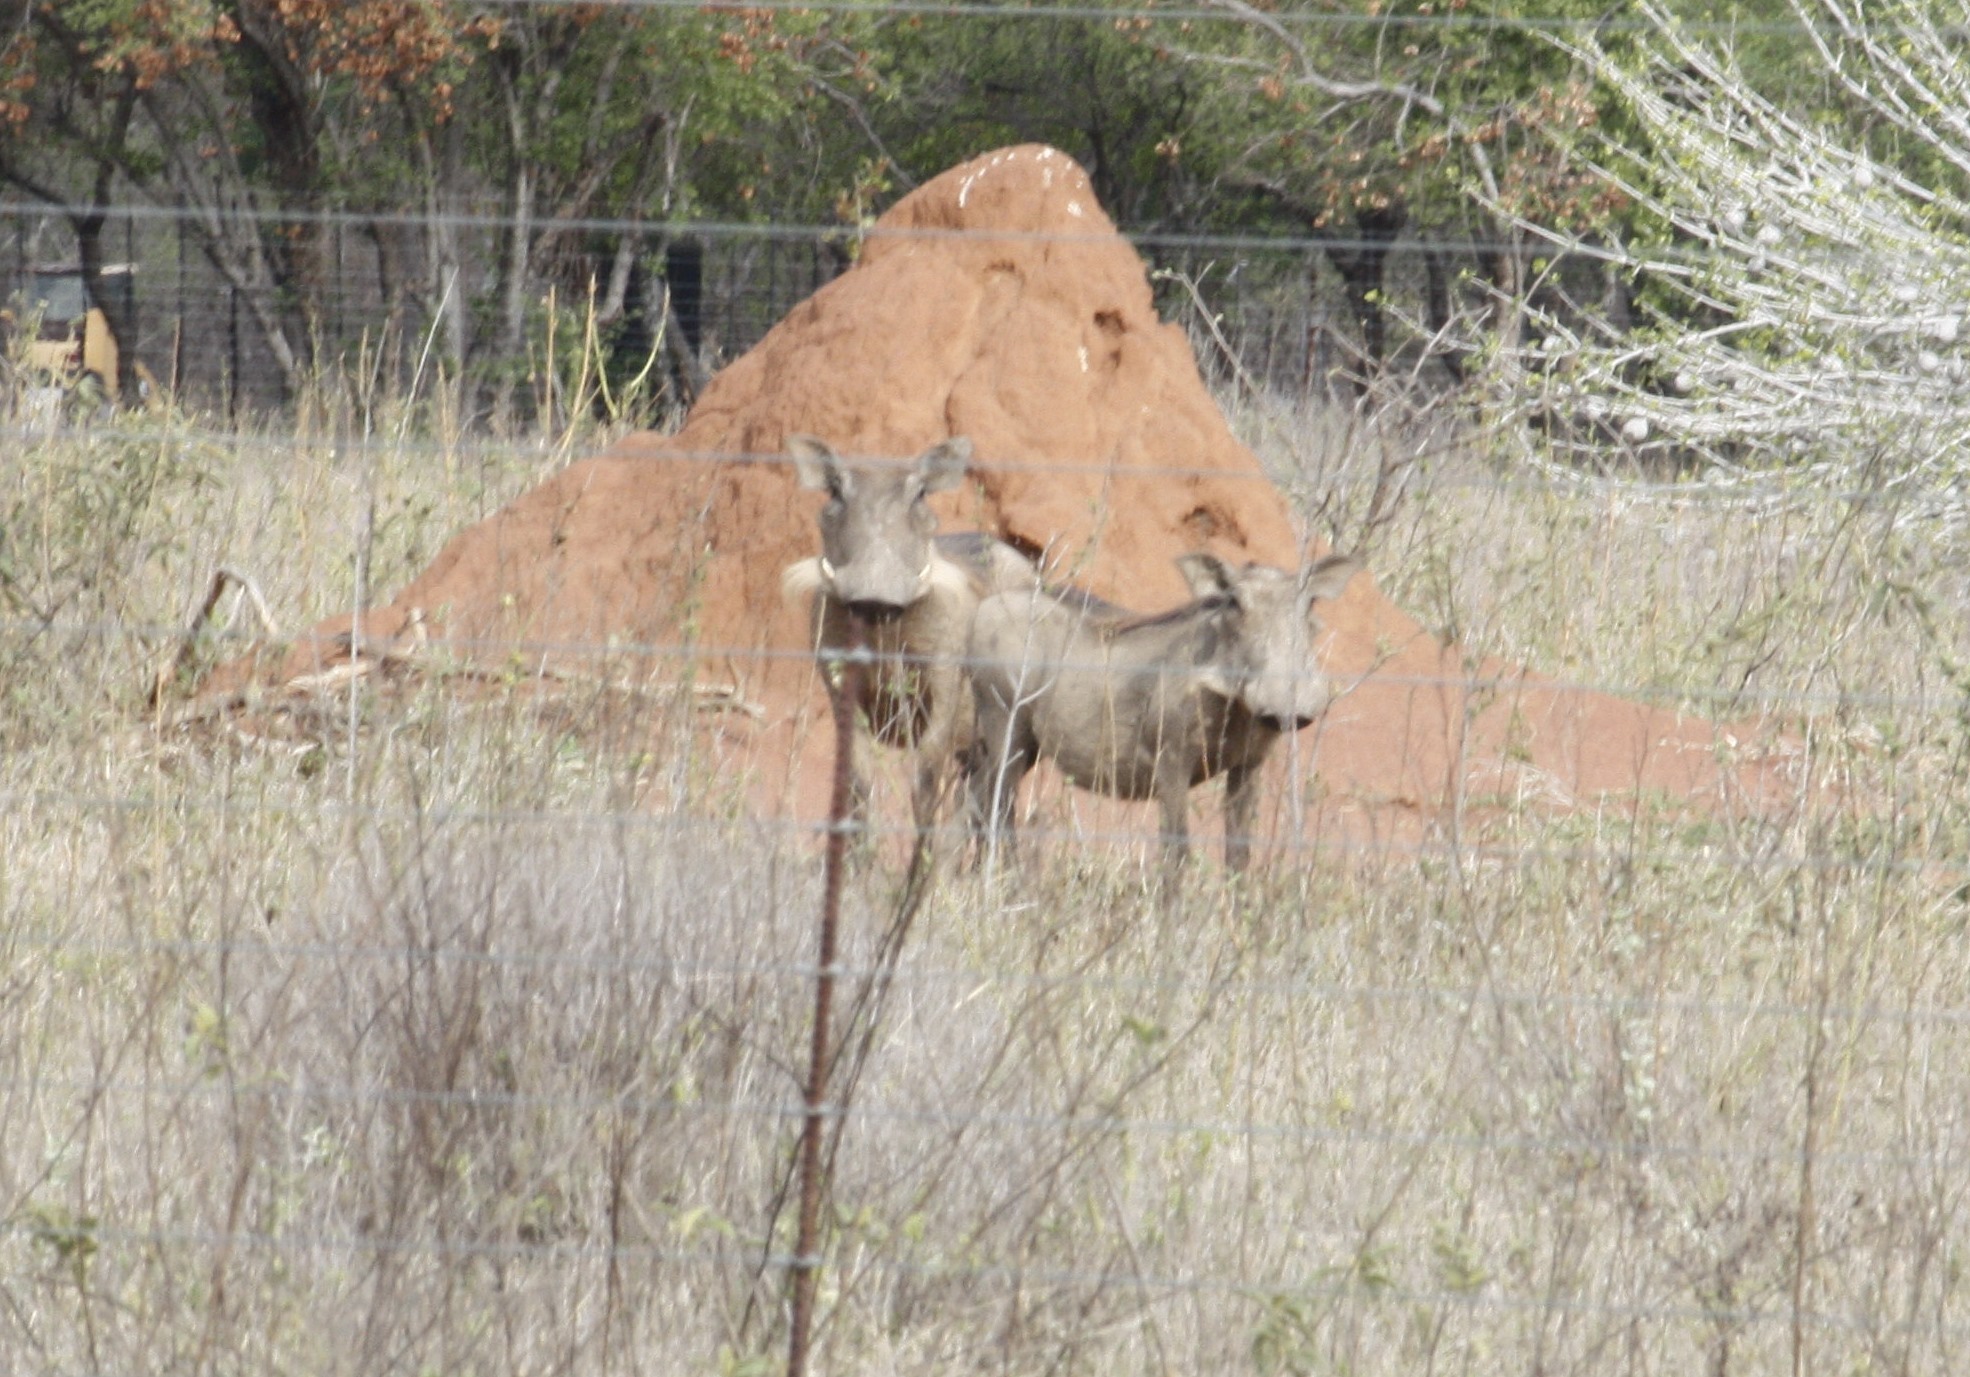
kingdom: Animalia
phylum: Chordata
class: Mammalia
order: Artiodactyla
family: Suidae
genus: Phacochoerus
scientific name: Phacochoerus africanus
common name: Common warthog
